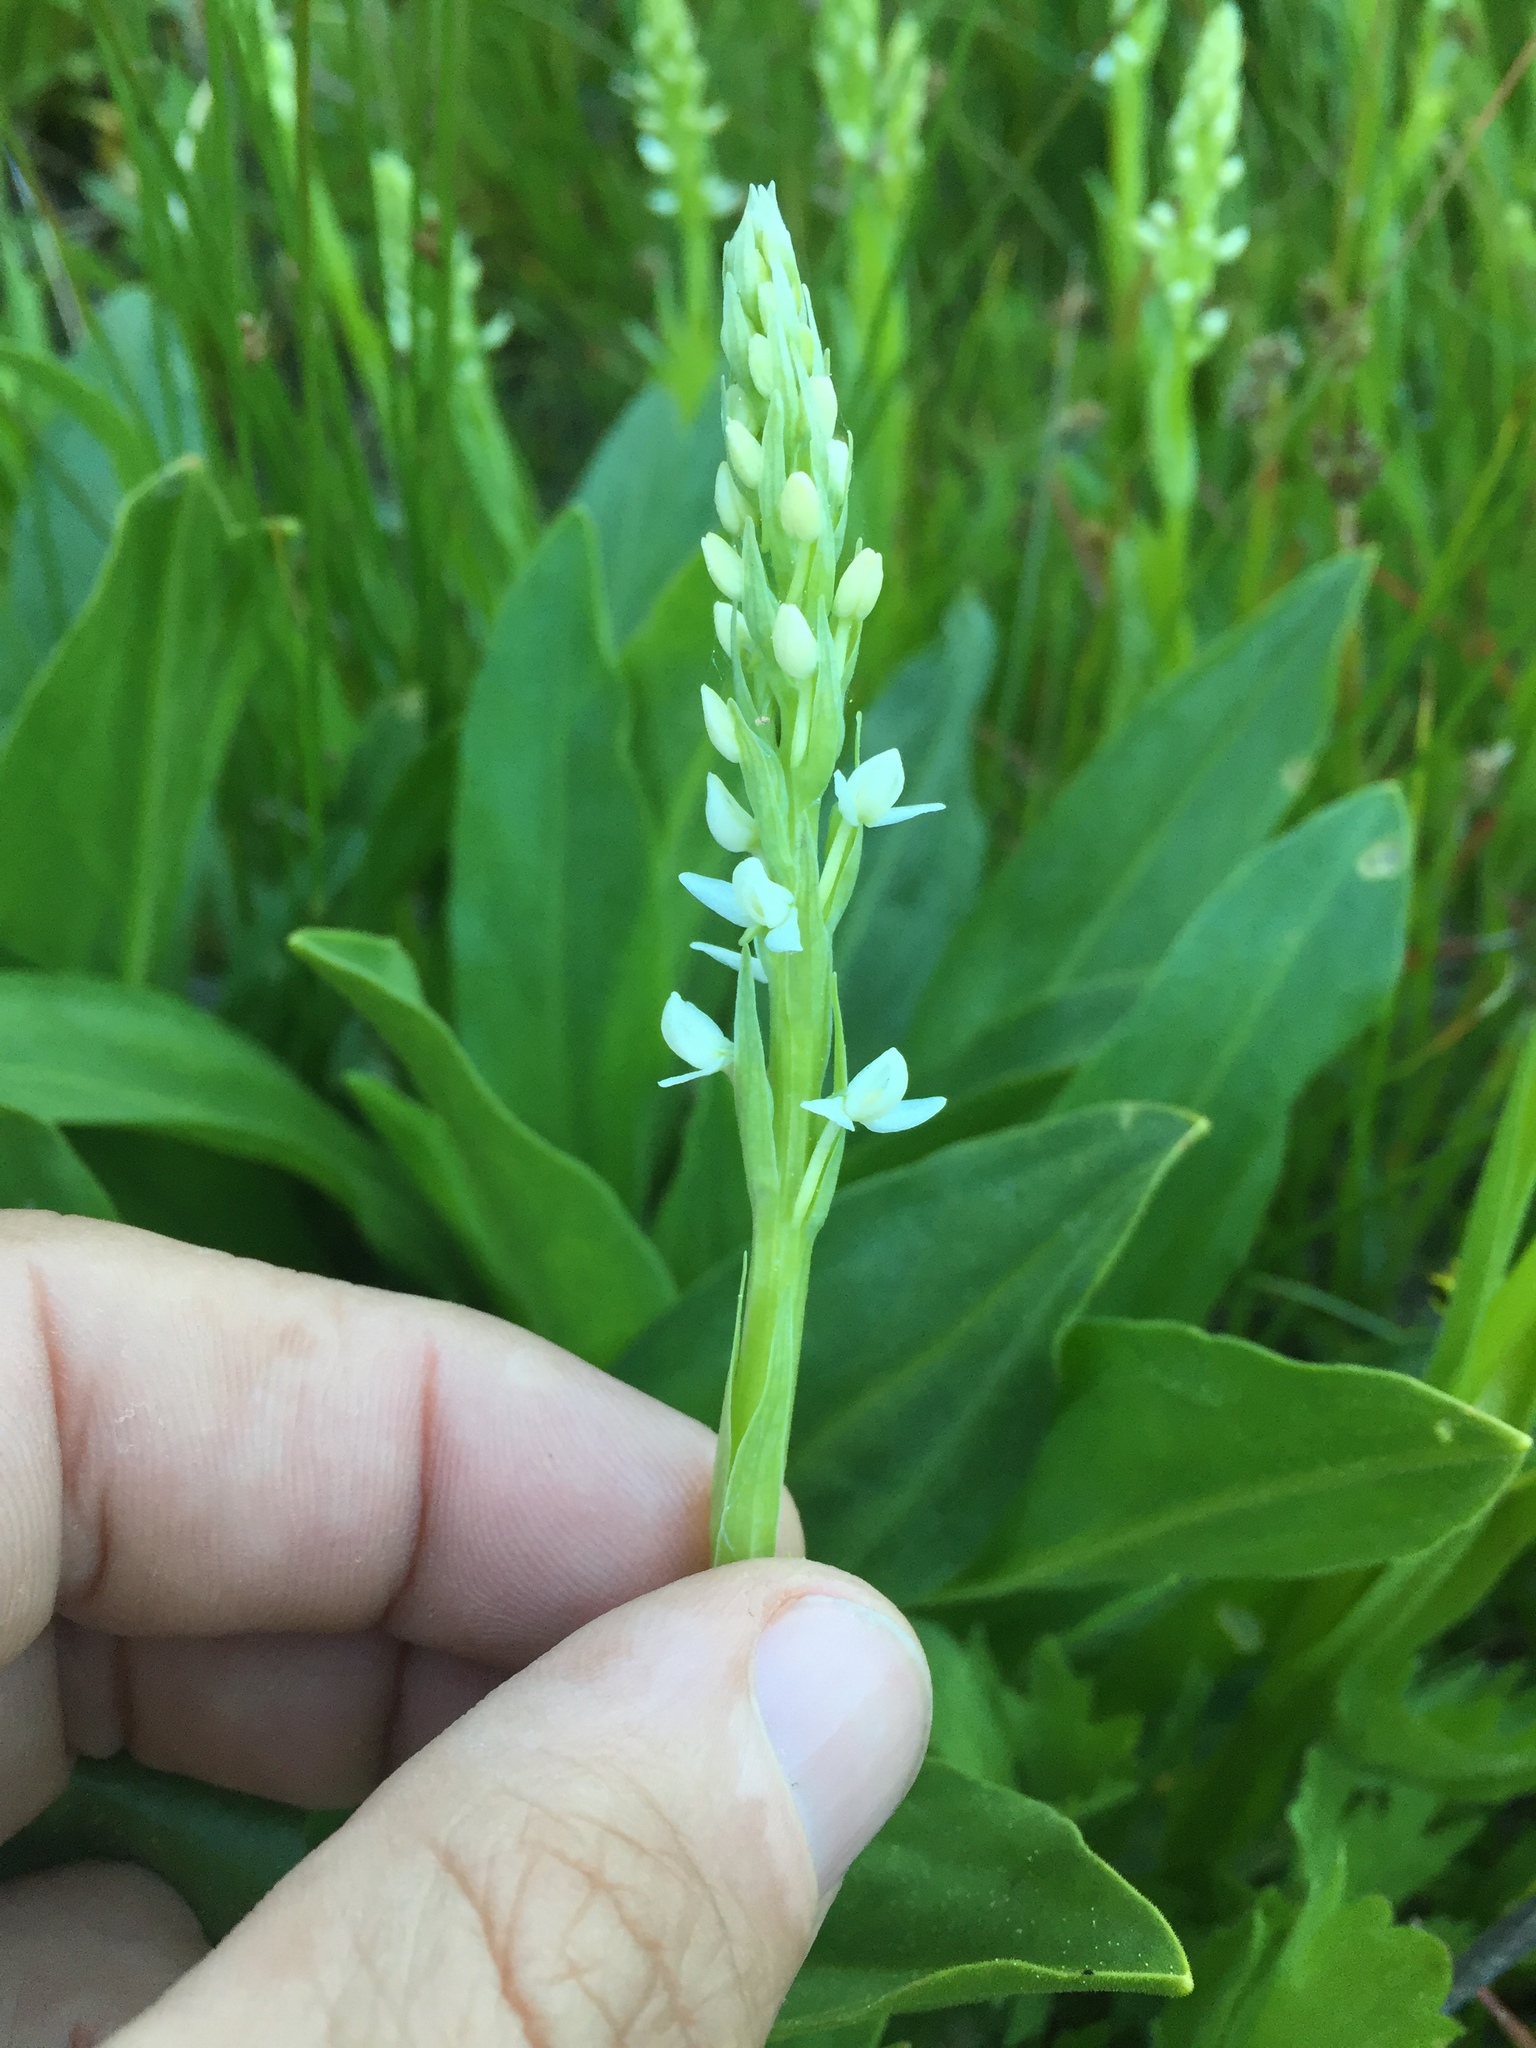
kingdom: Plantae
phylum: Tracheophyta
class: Liliopsida
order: Asparagales
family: Orchidaceae
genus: Platanthera
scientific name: Platanthera dilatata
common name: Bog candles
